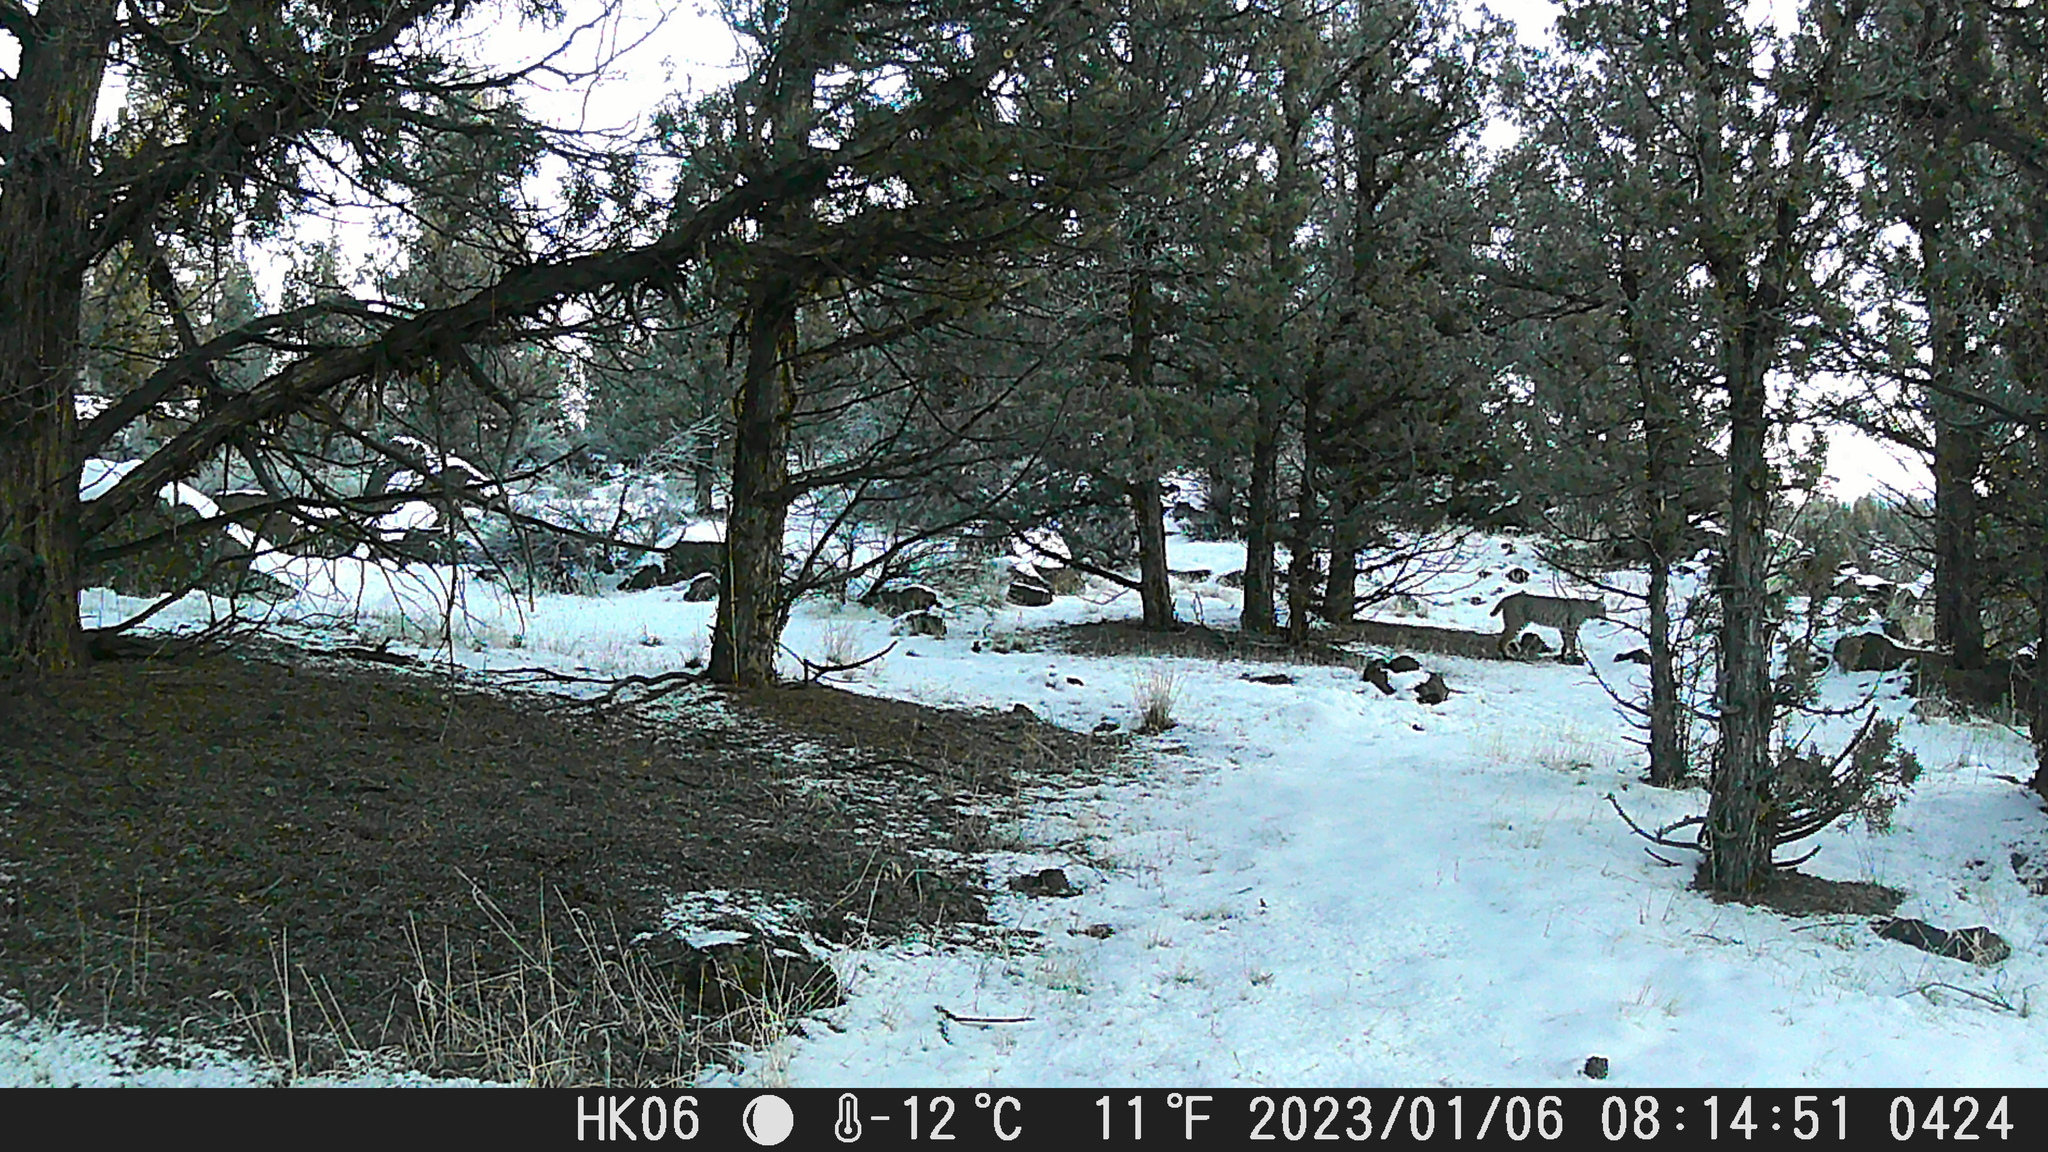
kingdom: Animalia
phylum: Chordata
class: Mammalia
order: Carnivora
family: Felidae
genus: Lynx
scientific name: Lynx rufus
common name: Bobcat
